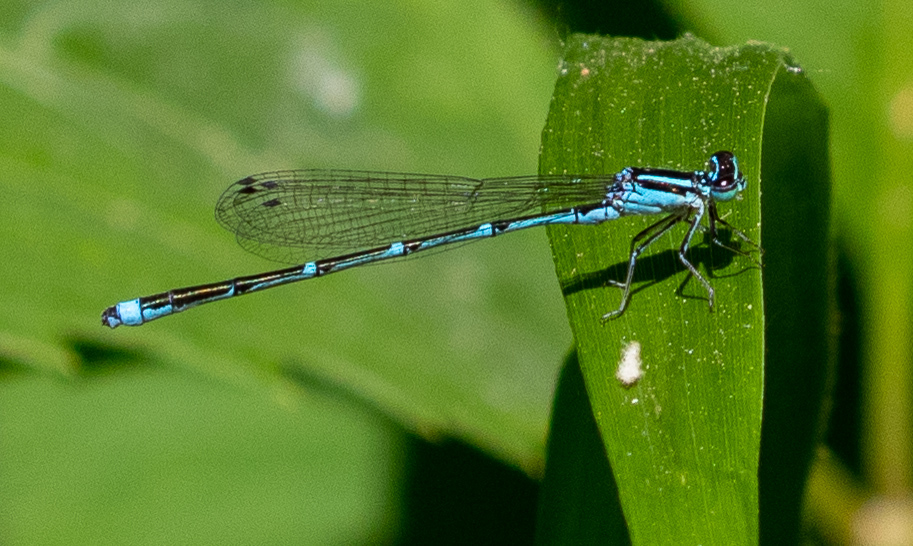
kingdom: Animalia
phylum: Arthropoda
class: Insecta
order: Odonata
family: Coenagrionidae
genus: Enallagma
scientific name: Enallagma exsulans
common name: Stream bluet
